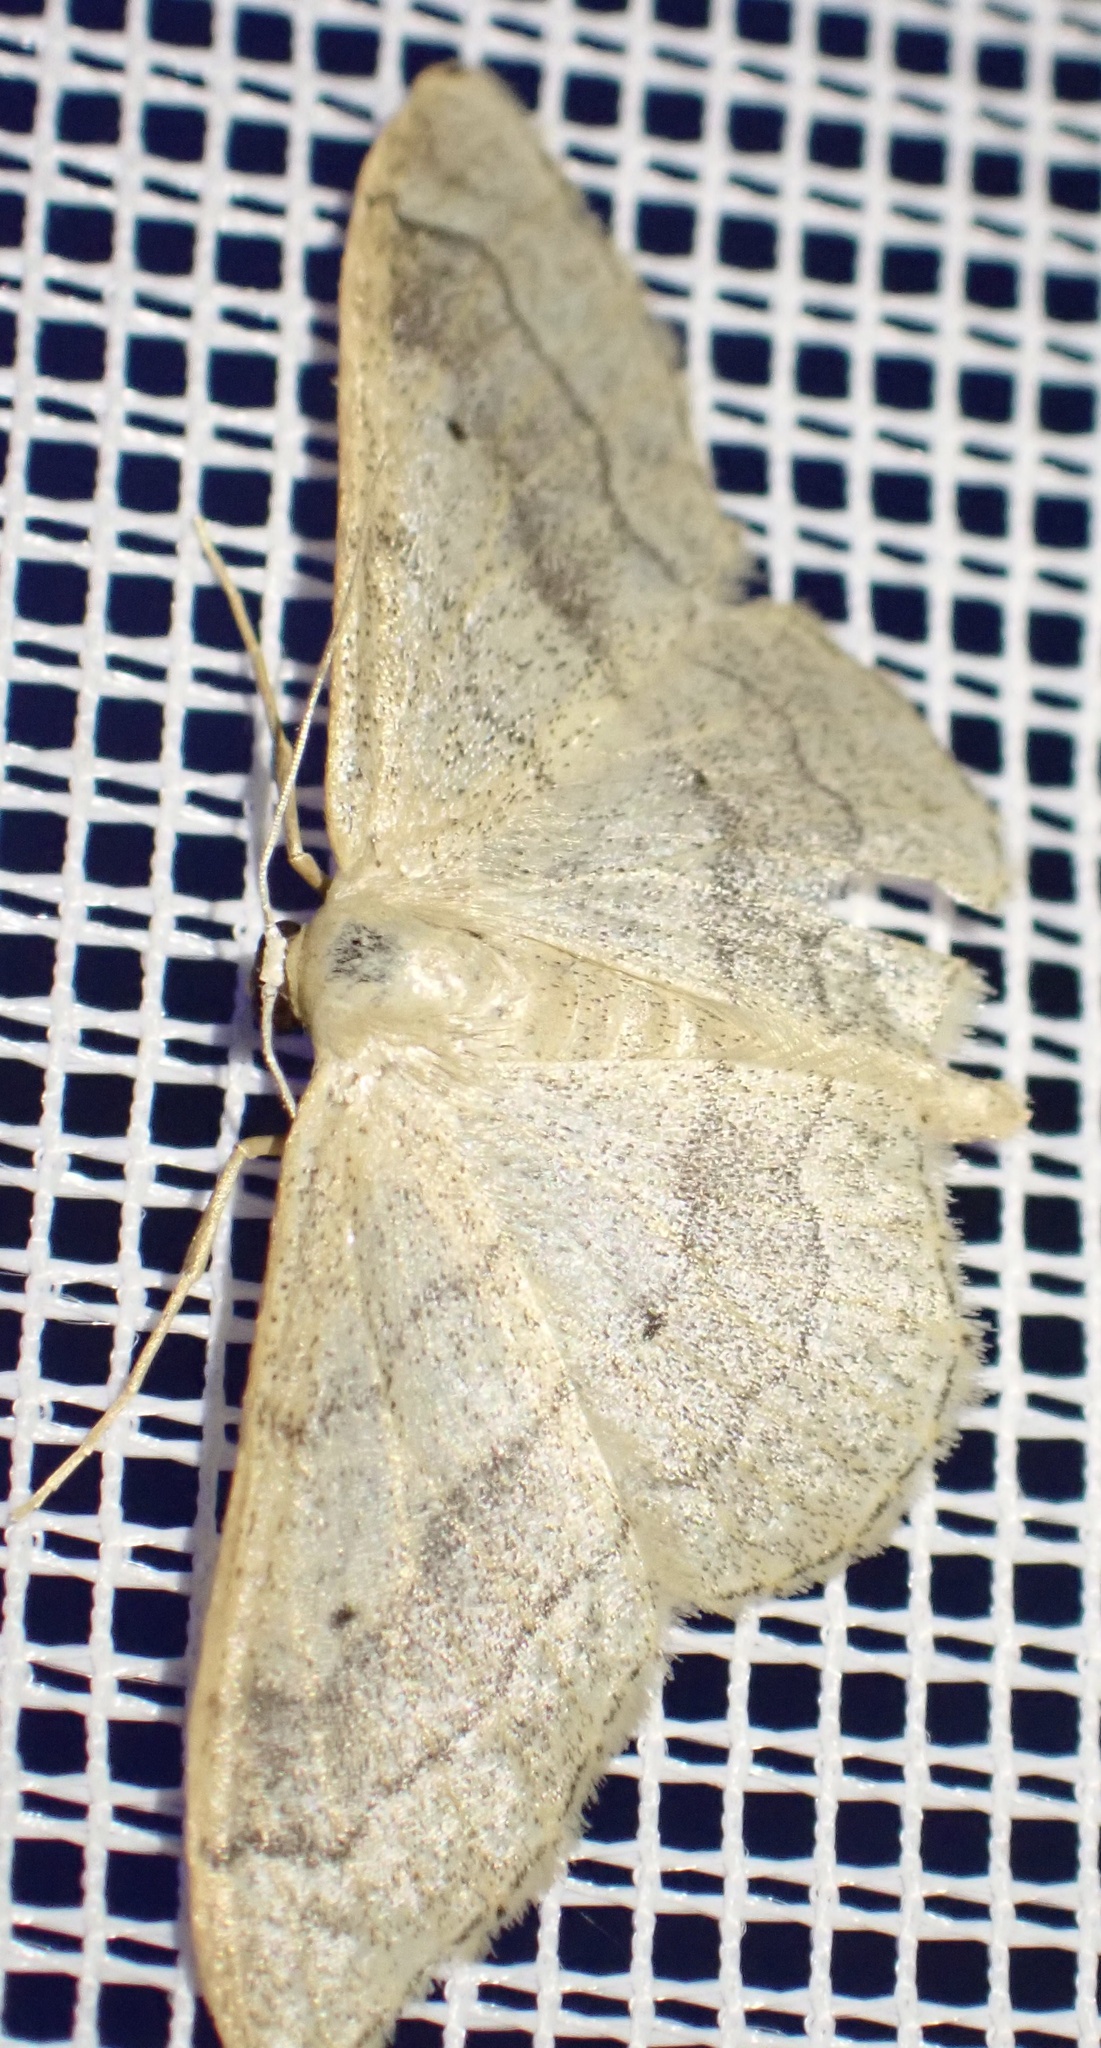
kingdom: Animalia
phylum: Arthropoda
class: Insecta
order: Lepidoptera
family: Geometridae
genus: Idaea
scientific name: Idaea aversata
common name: Riband wave
